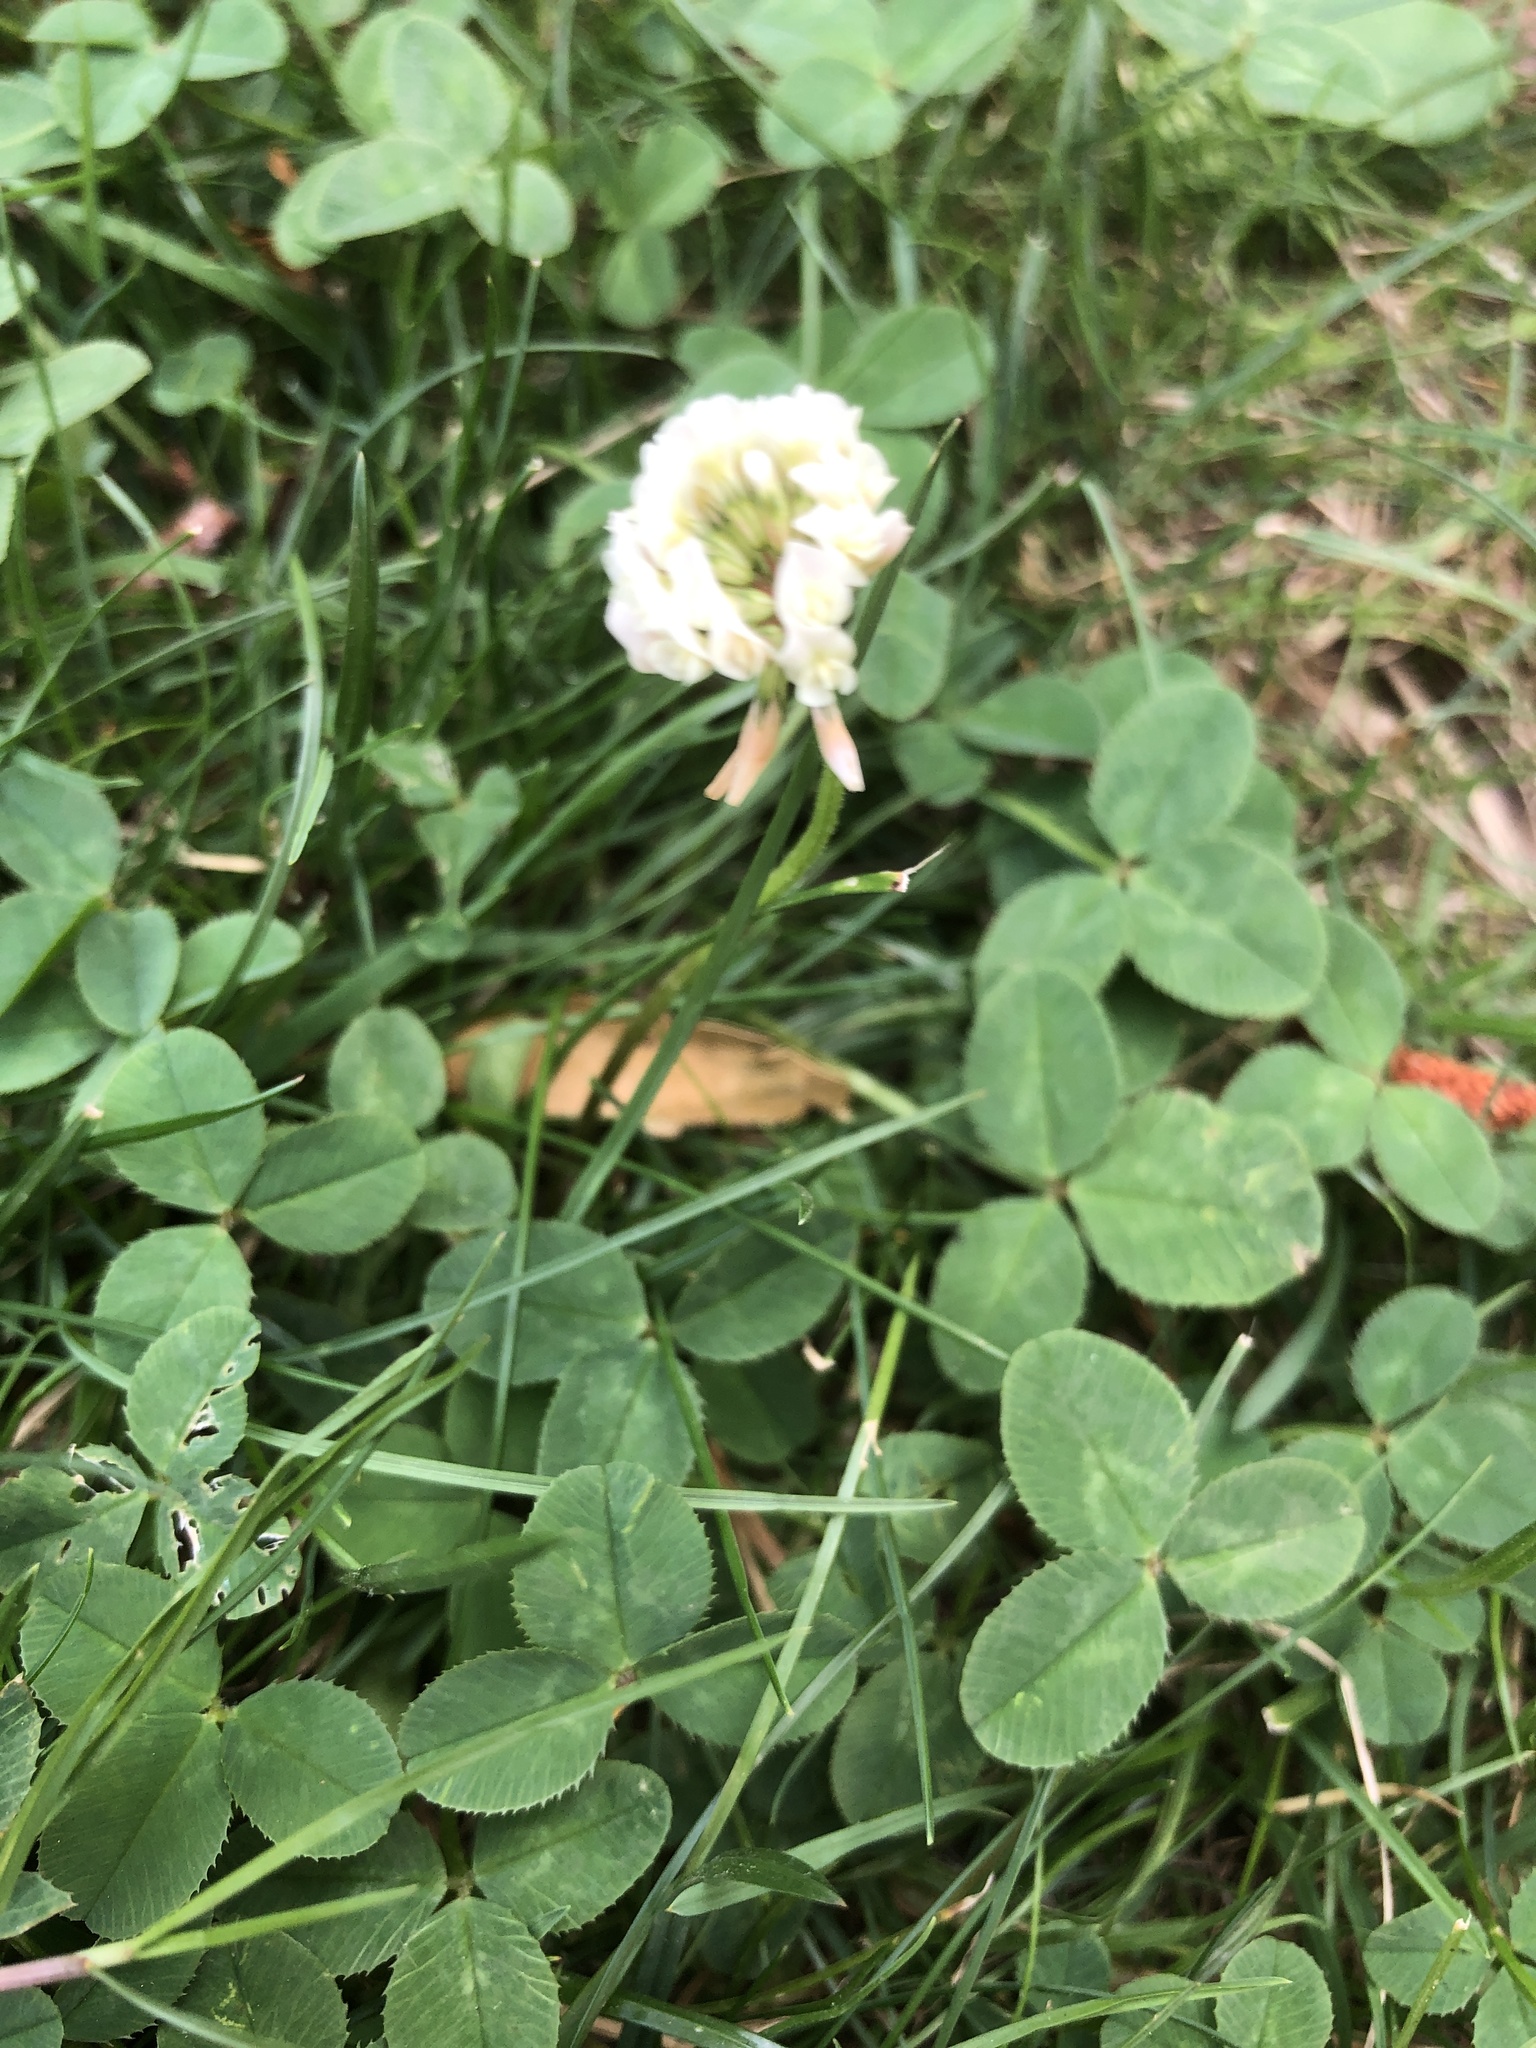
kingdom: Plantae
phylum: Tracheophyta
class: Magnoliopsida
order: Fabales
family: Fabaceae
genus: Trifolium
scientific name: Trifolium repens
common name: White clover
